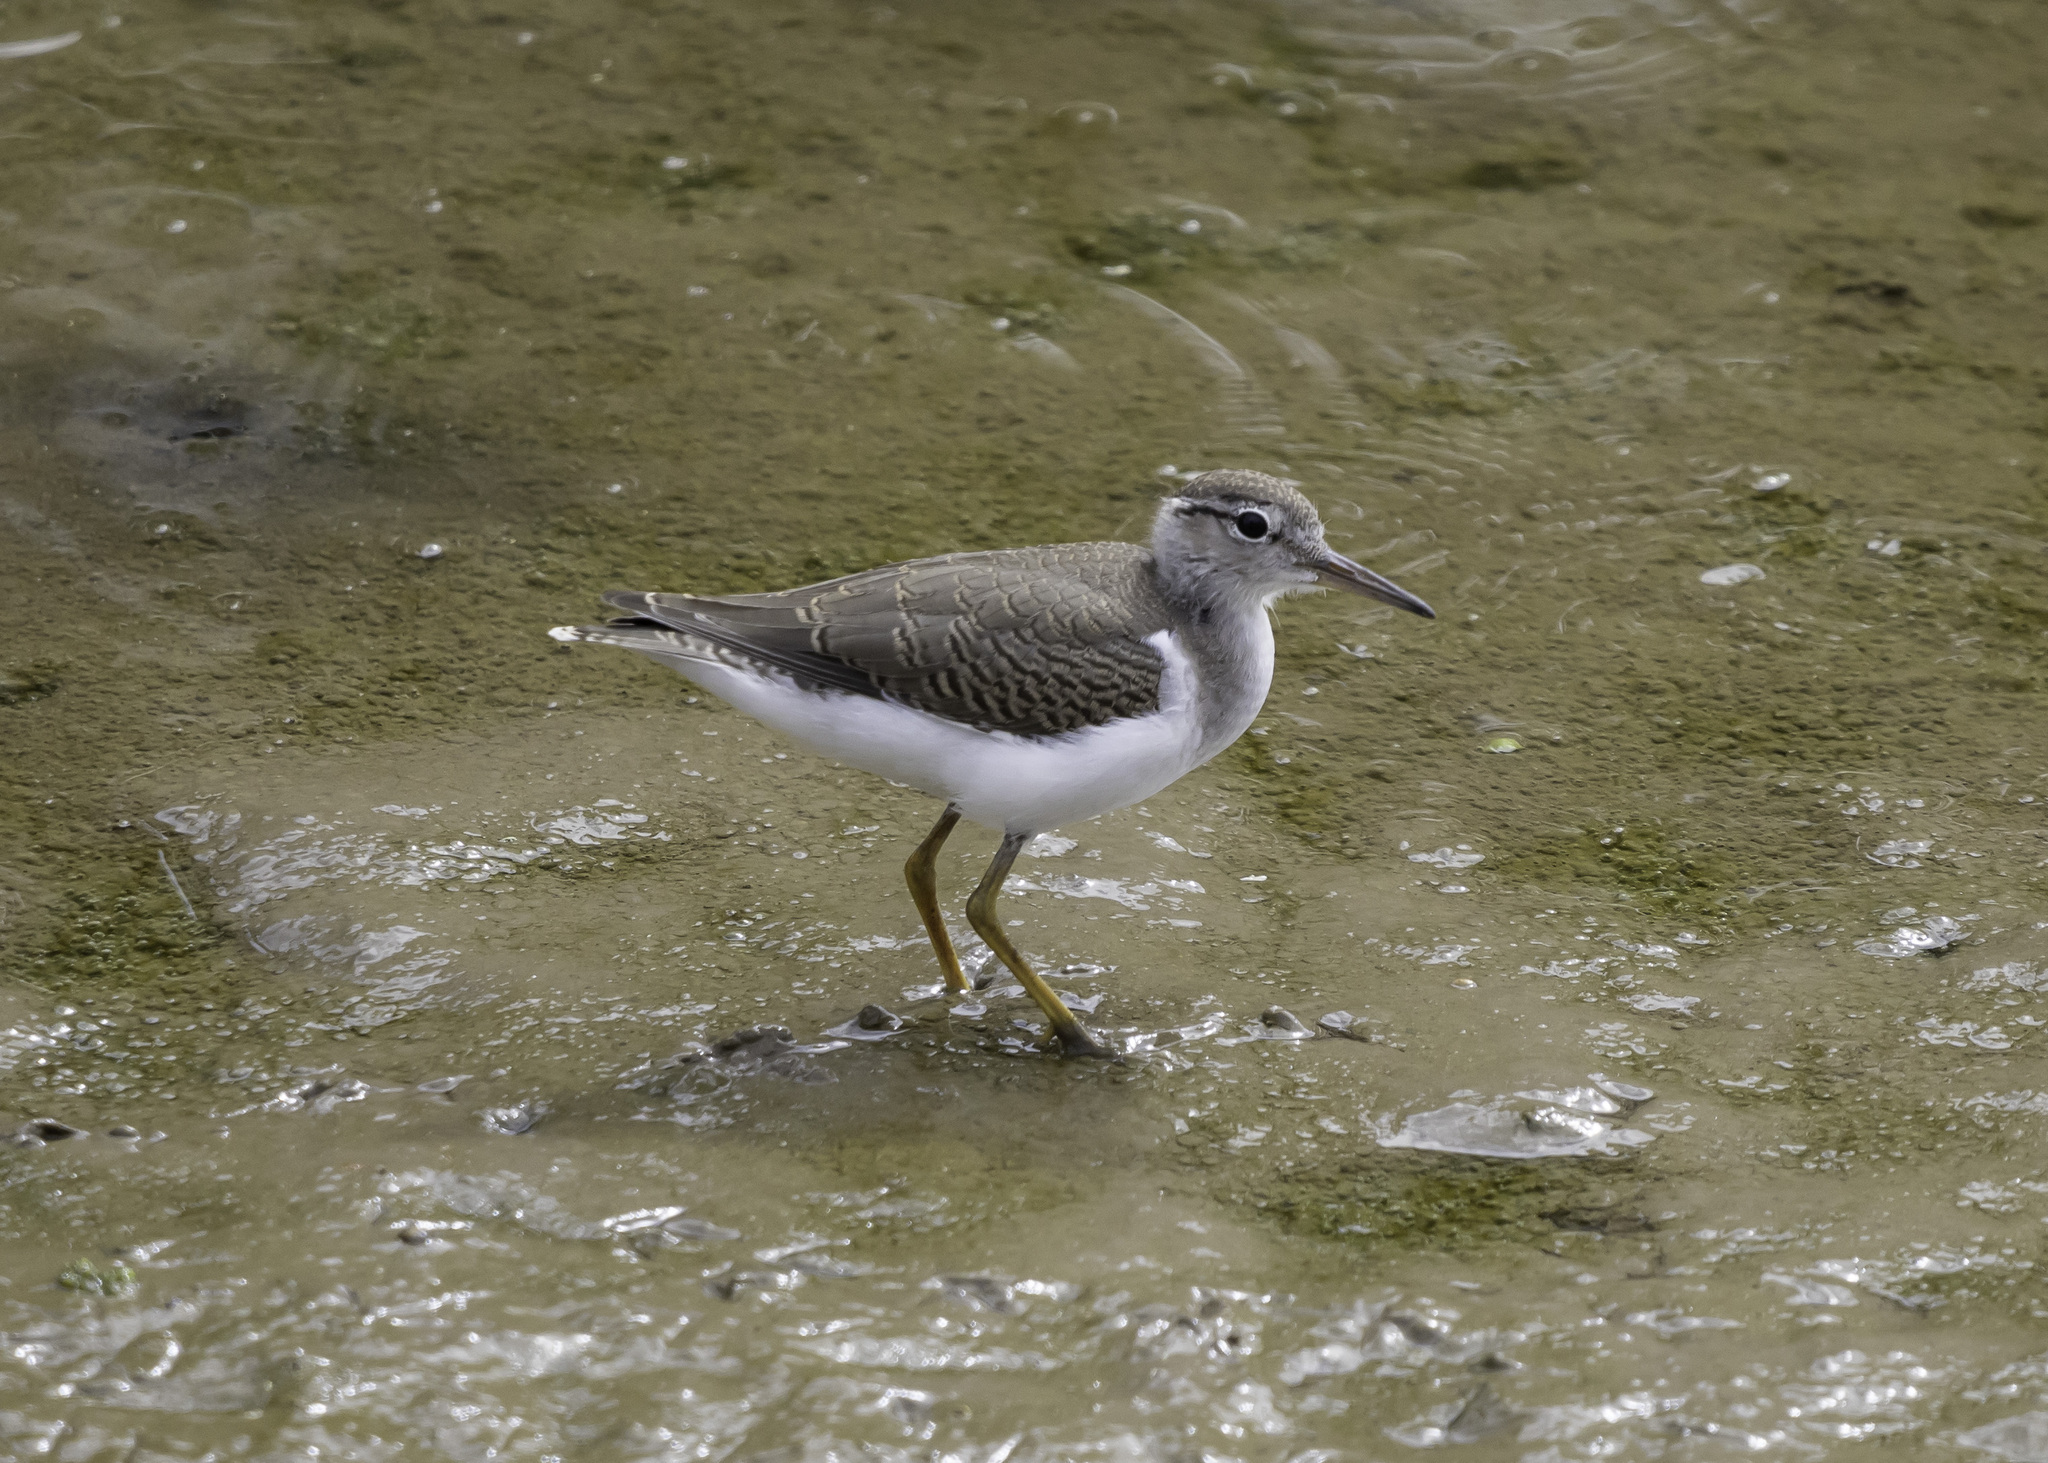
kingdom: Animalia
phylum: Chordata
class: Aves
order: Charadriiformes
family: Scolopacidae
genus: Actitis
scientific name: Actitis macularius
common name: Spotted sandpiper
